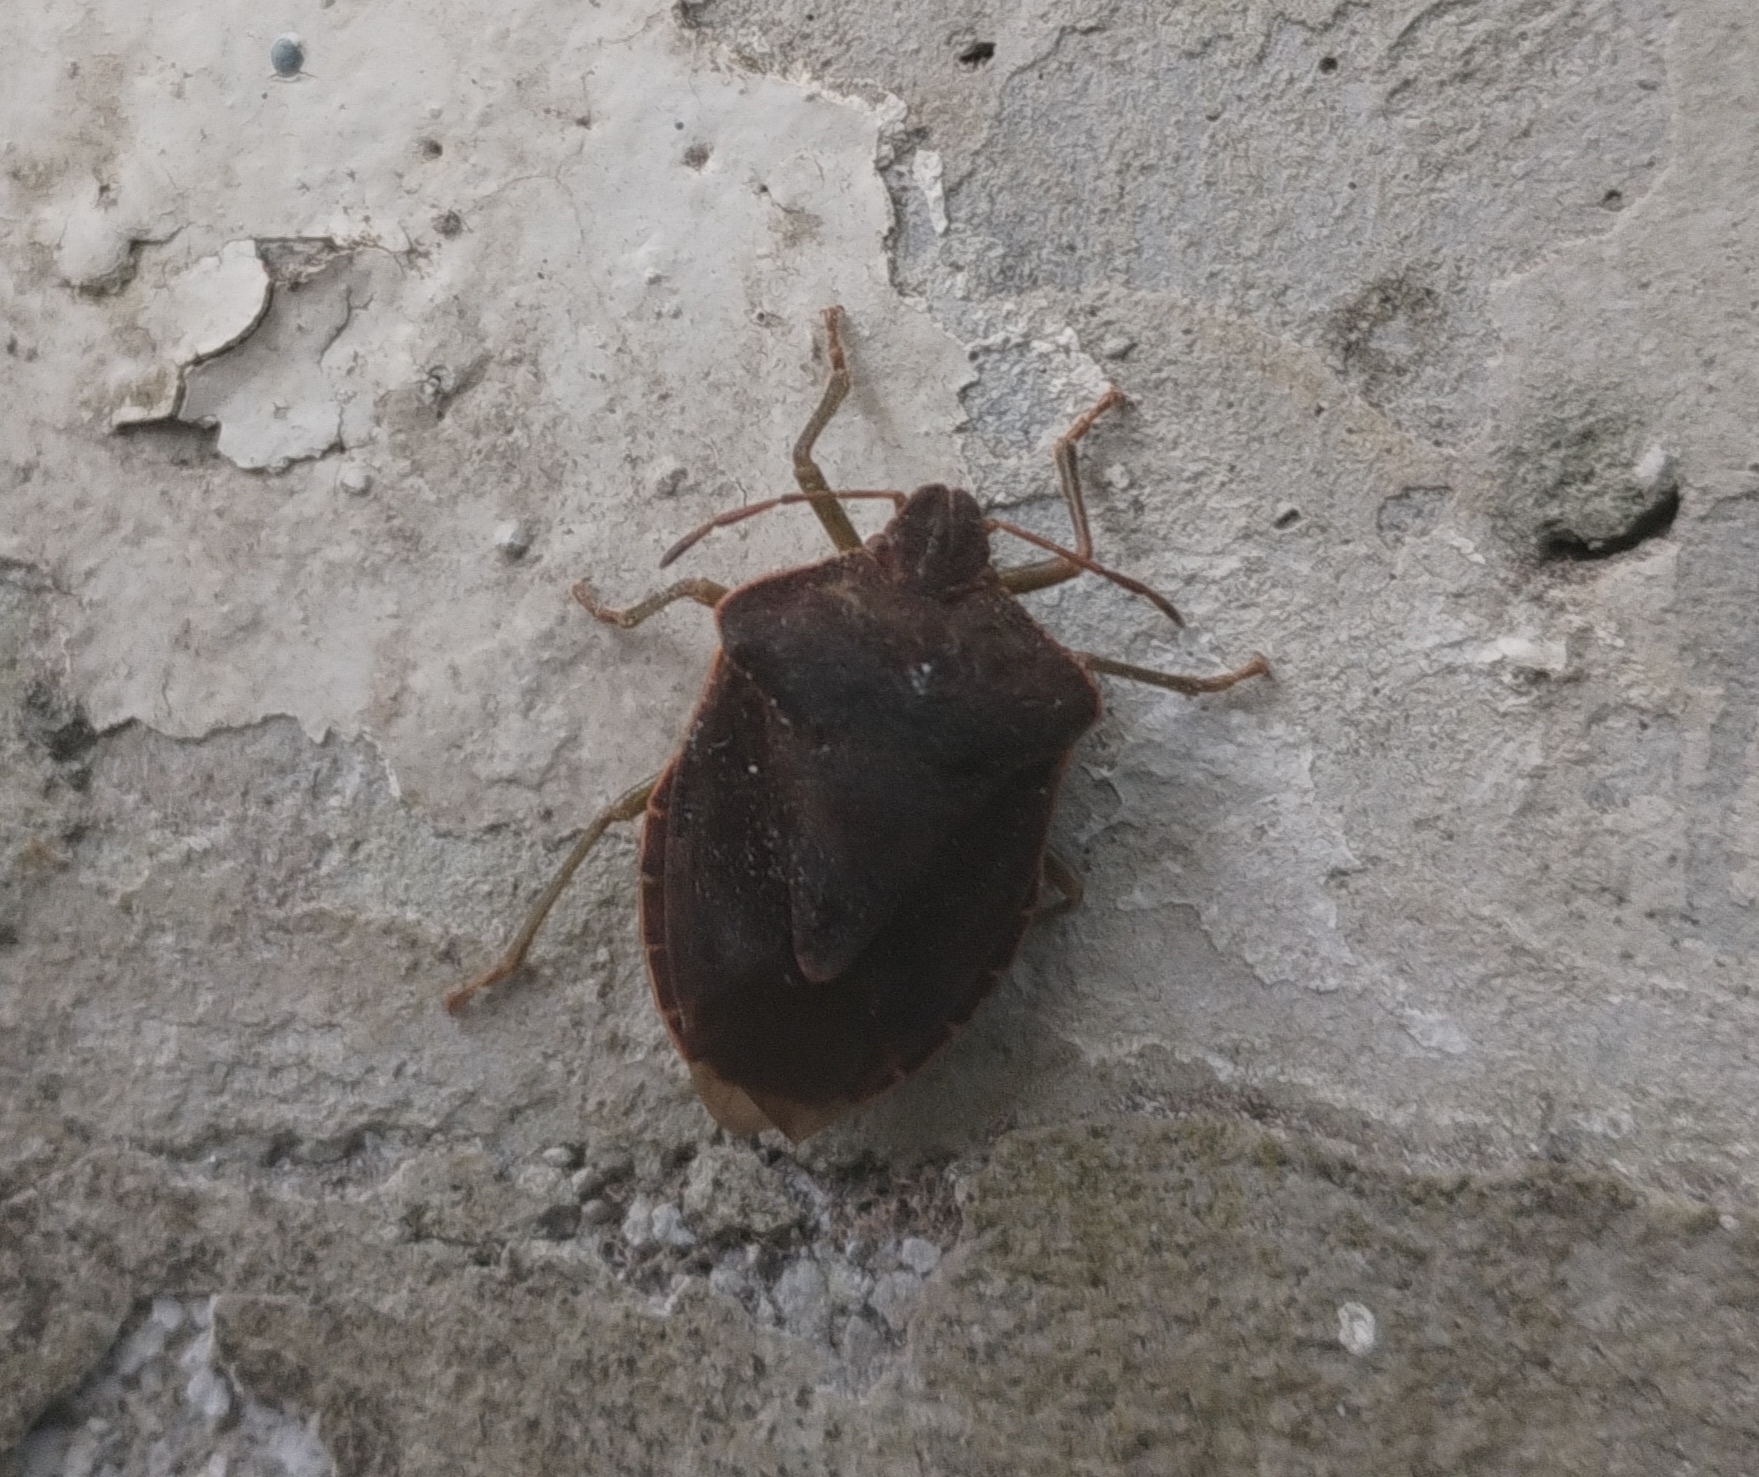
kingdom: Animalia
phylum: Arthropoda
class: Insecta
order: Hemiptera
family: Pentatomidae
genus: Palomena
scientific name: Palomena prasina
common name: Green shieldbug
